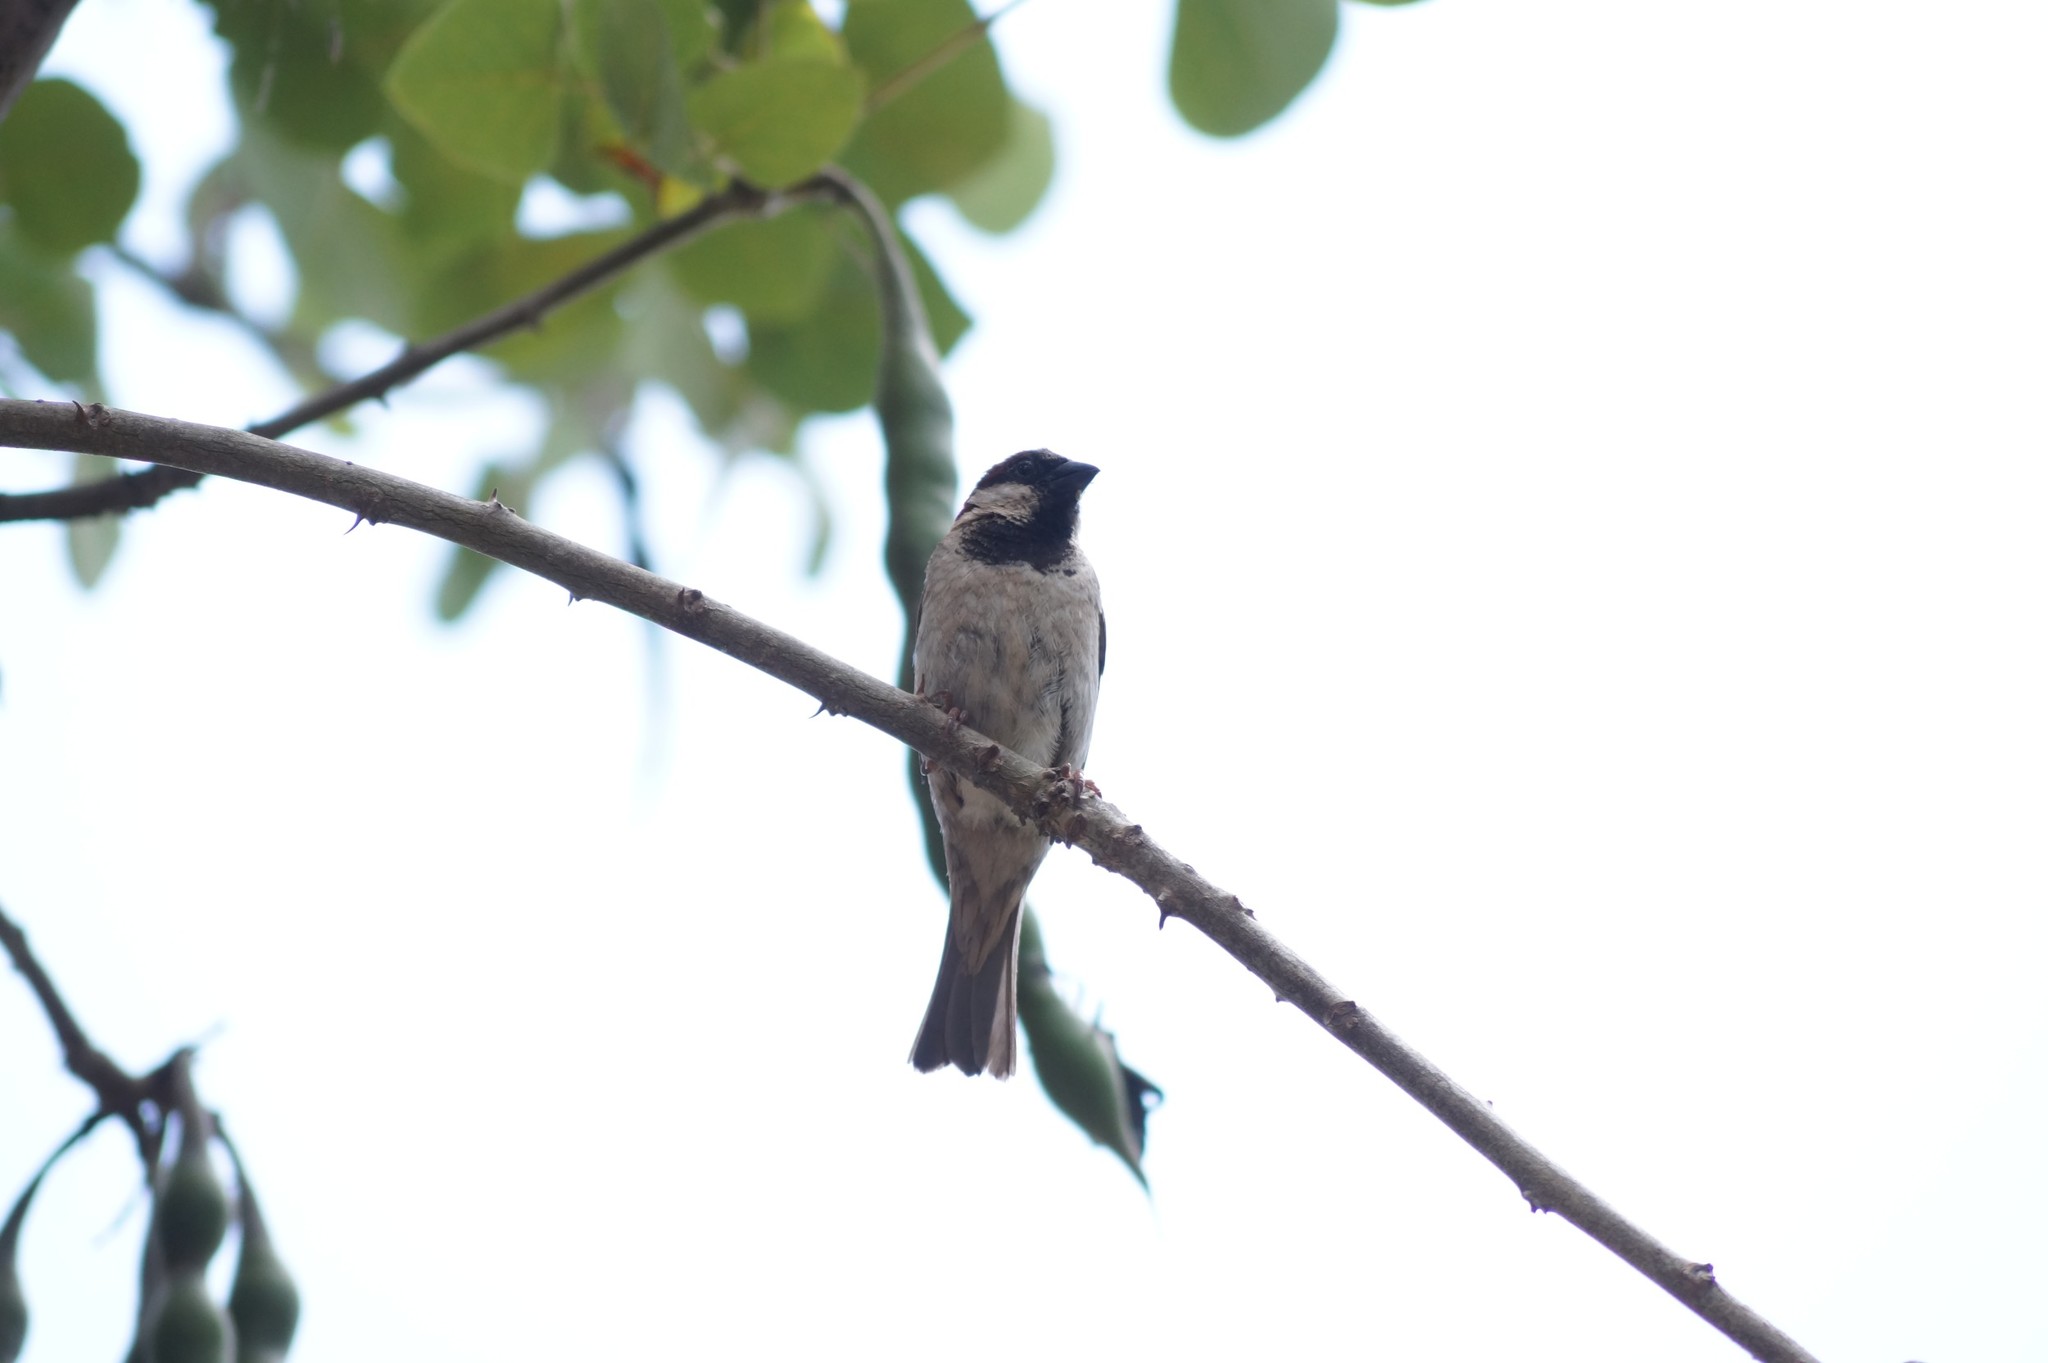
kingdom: Animalia
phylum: Chordata
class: Aves
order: Passeriformes
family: Passeridae
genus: Passer
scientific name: Passer domesticus
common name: House sparrow
